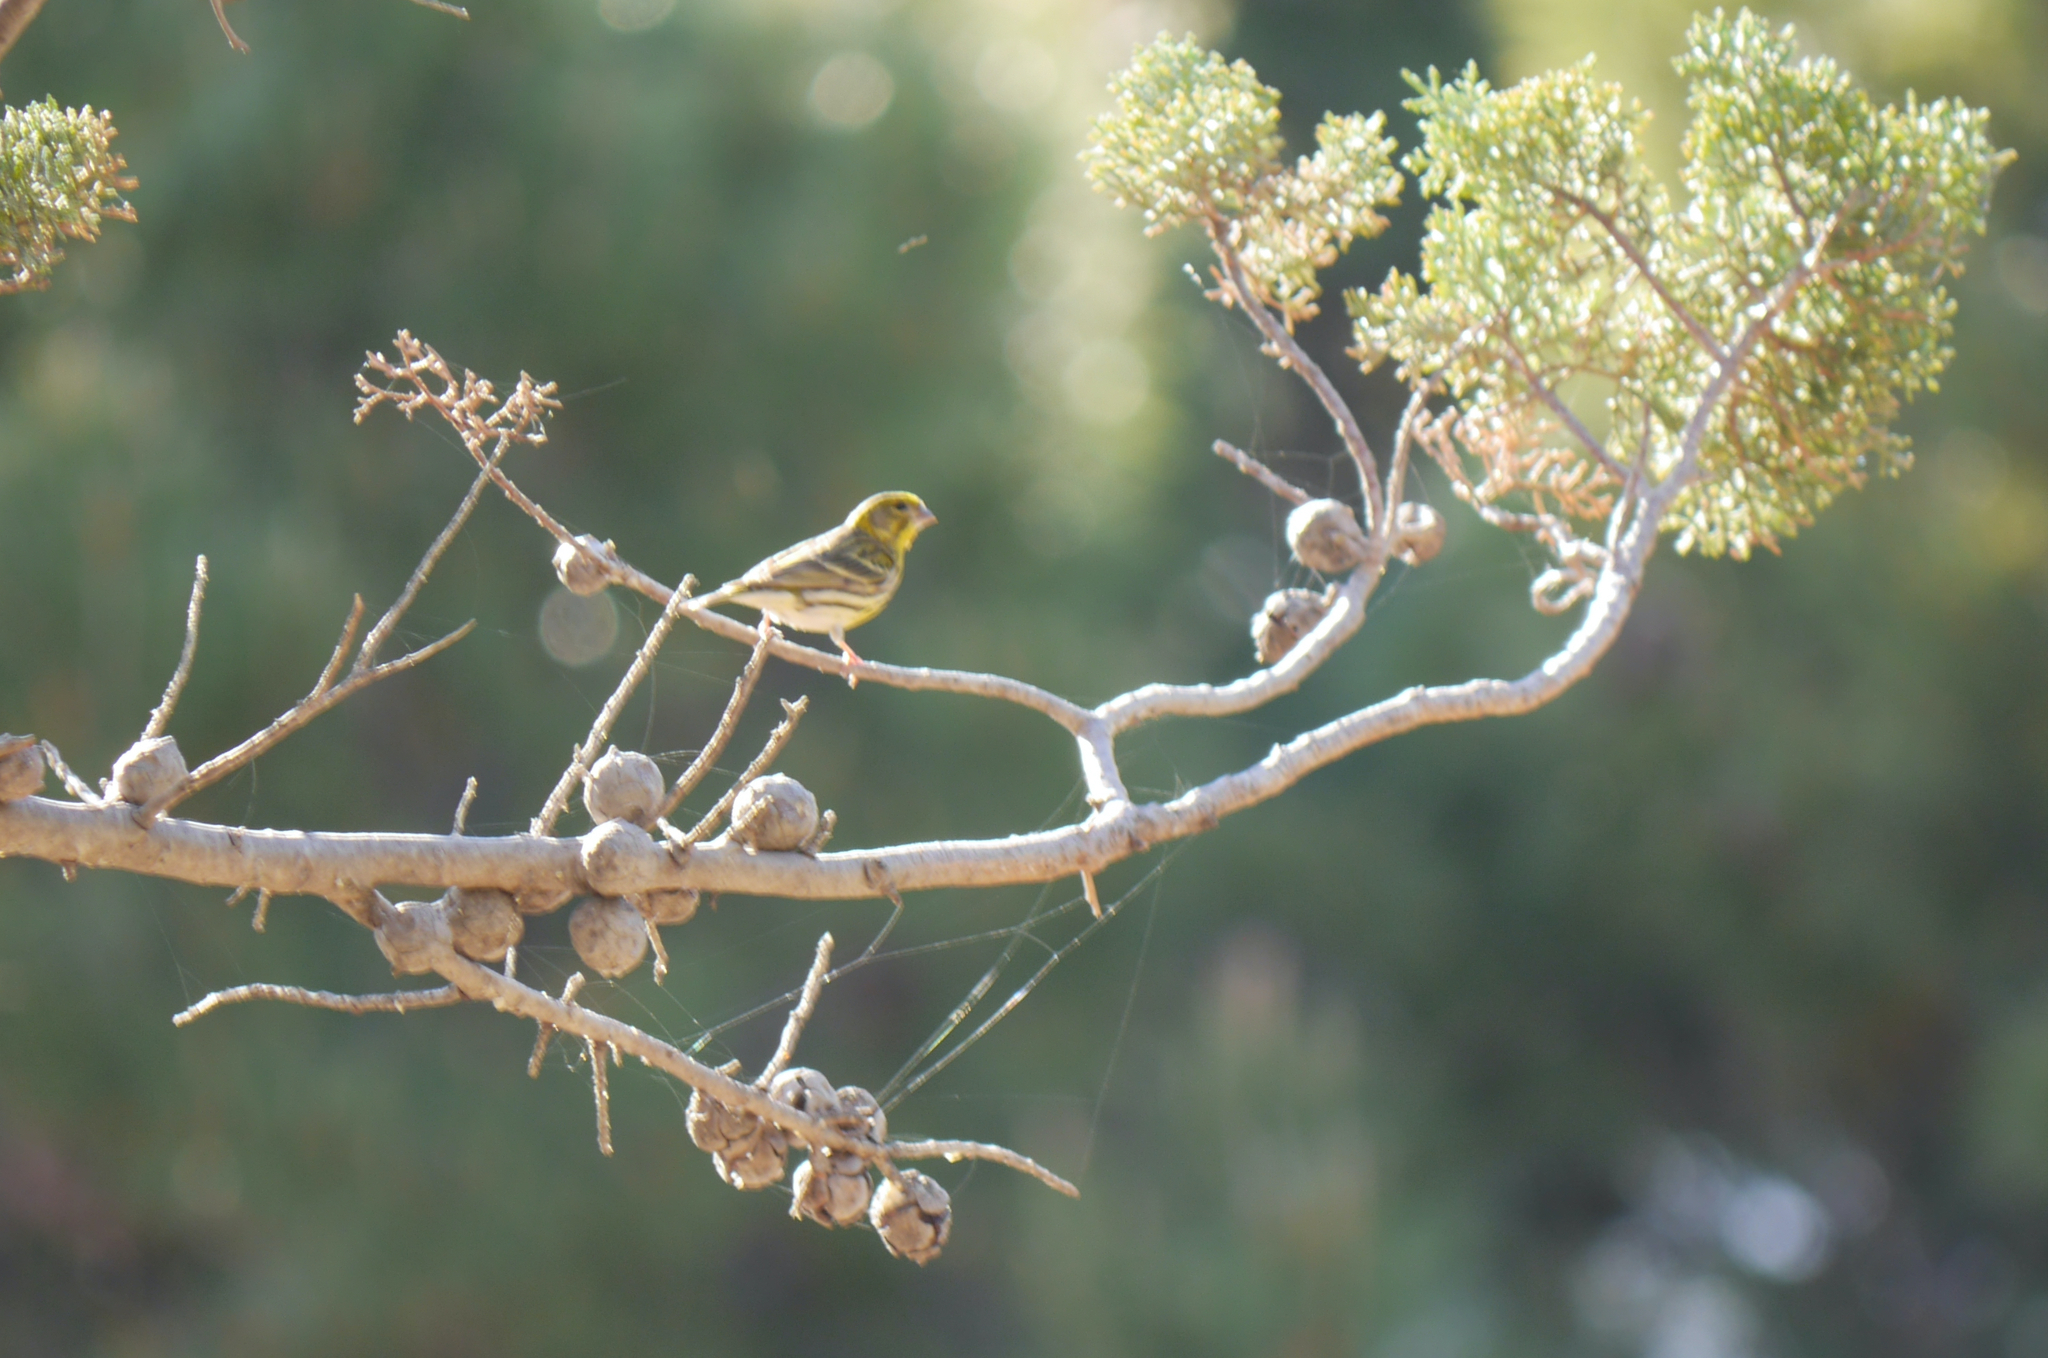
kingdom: Animalia
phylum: Chordata
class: Aves
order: Passeriformes
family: Fringillidae
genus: Serinus
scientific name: Serinus serinus
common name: European serin
